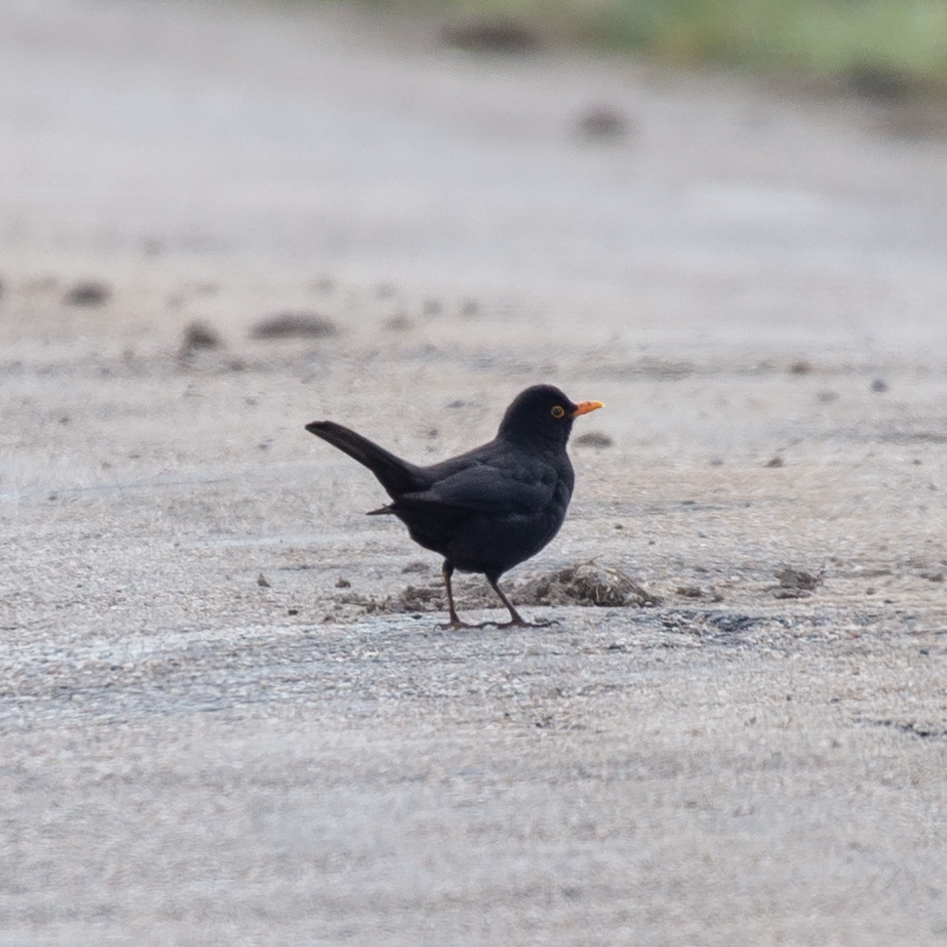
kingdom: Animalia
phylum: Chordata
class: Aves
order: Passeriformes
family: Turdidae
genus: Turdus
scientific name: Turdus merula
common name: Common blackbird
